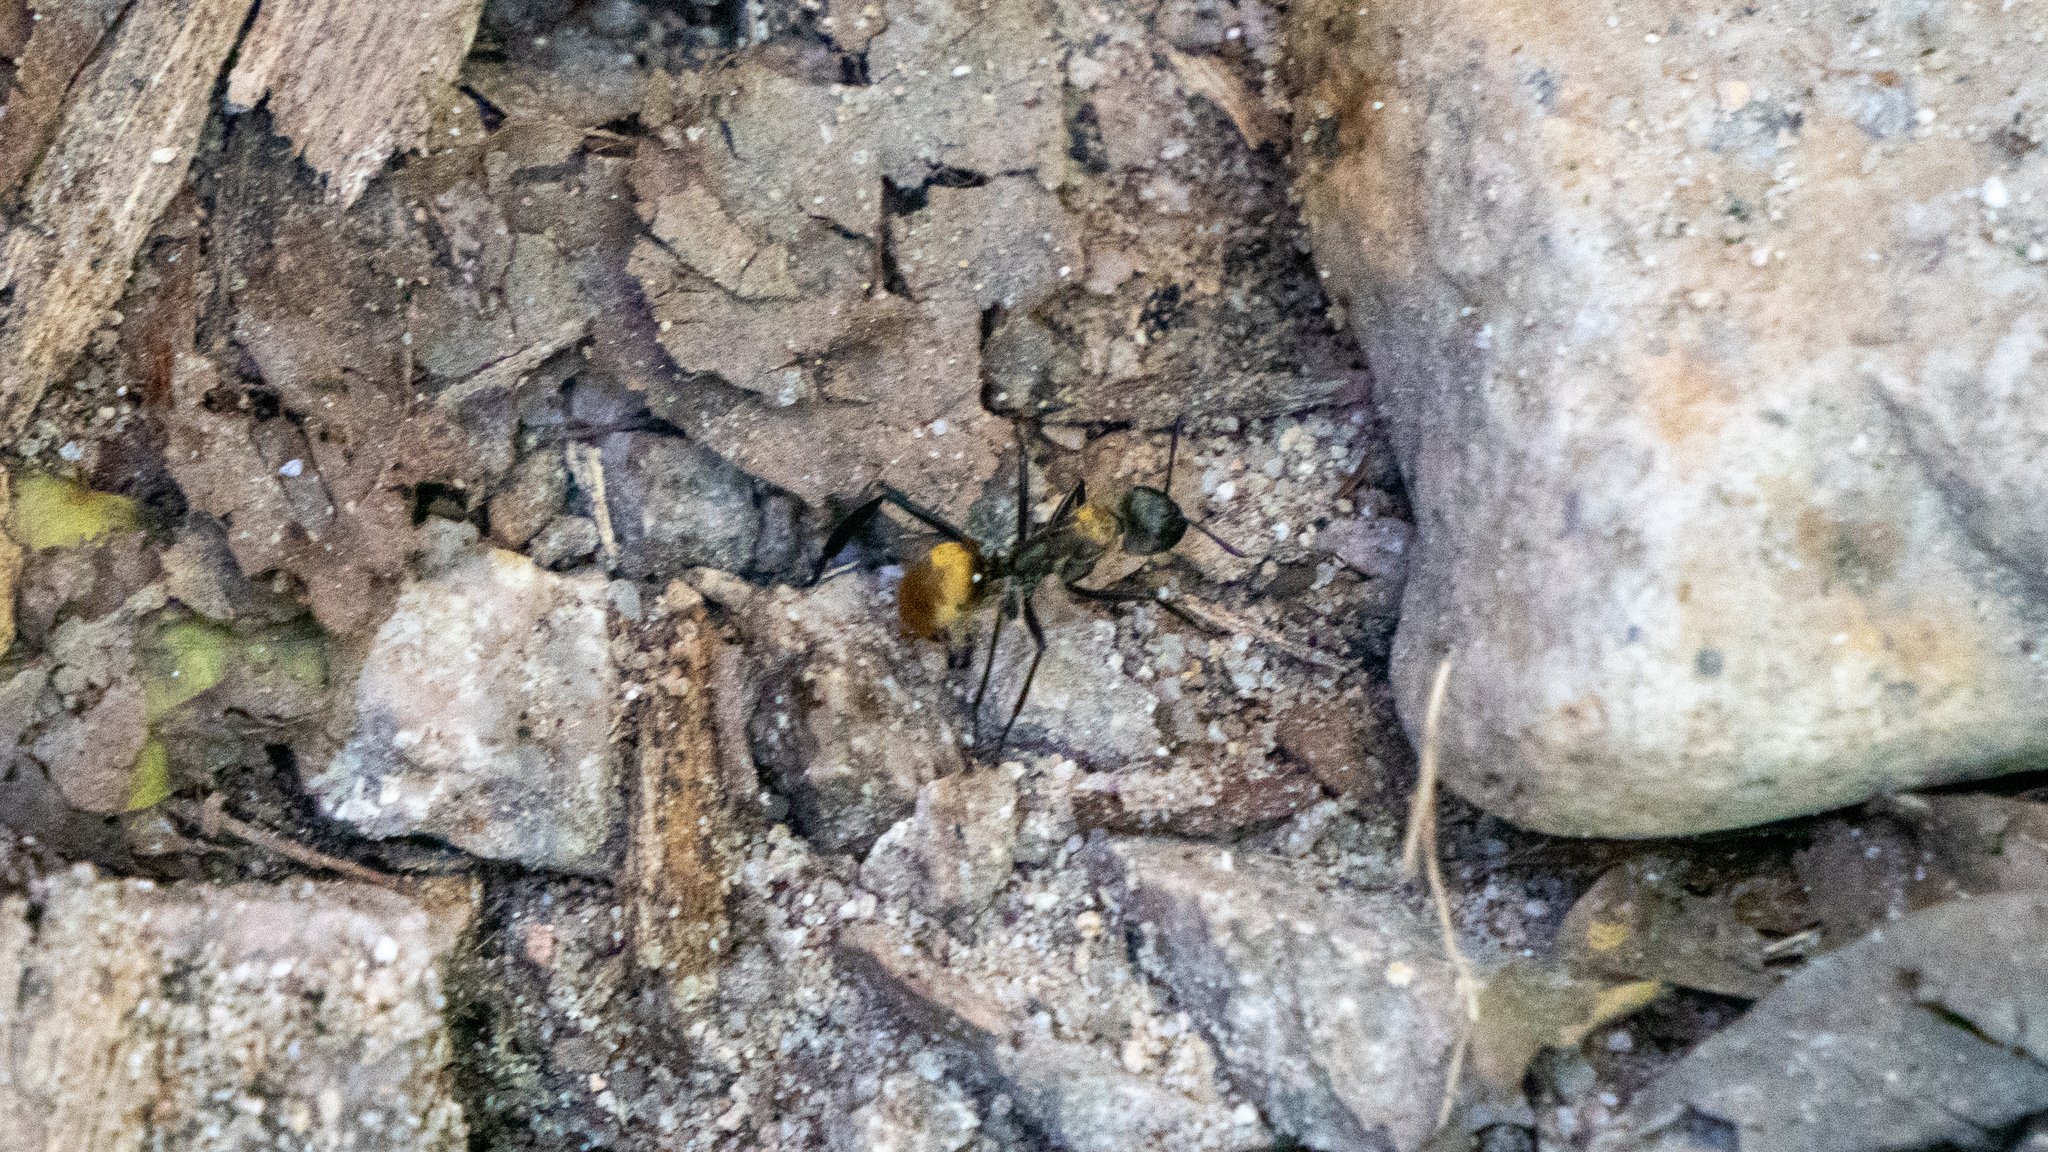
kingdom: Animalia
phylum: Arthropoda
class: Insecta
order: Hymenoptera
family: Formicidae
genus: Camponotus
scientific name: Camponotus sericeiventris
